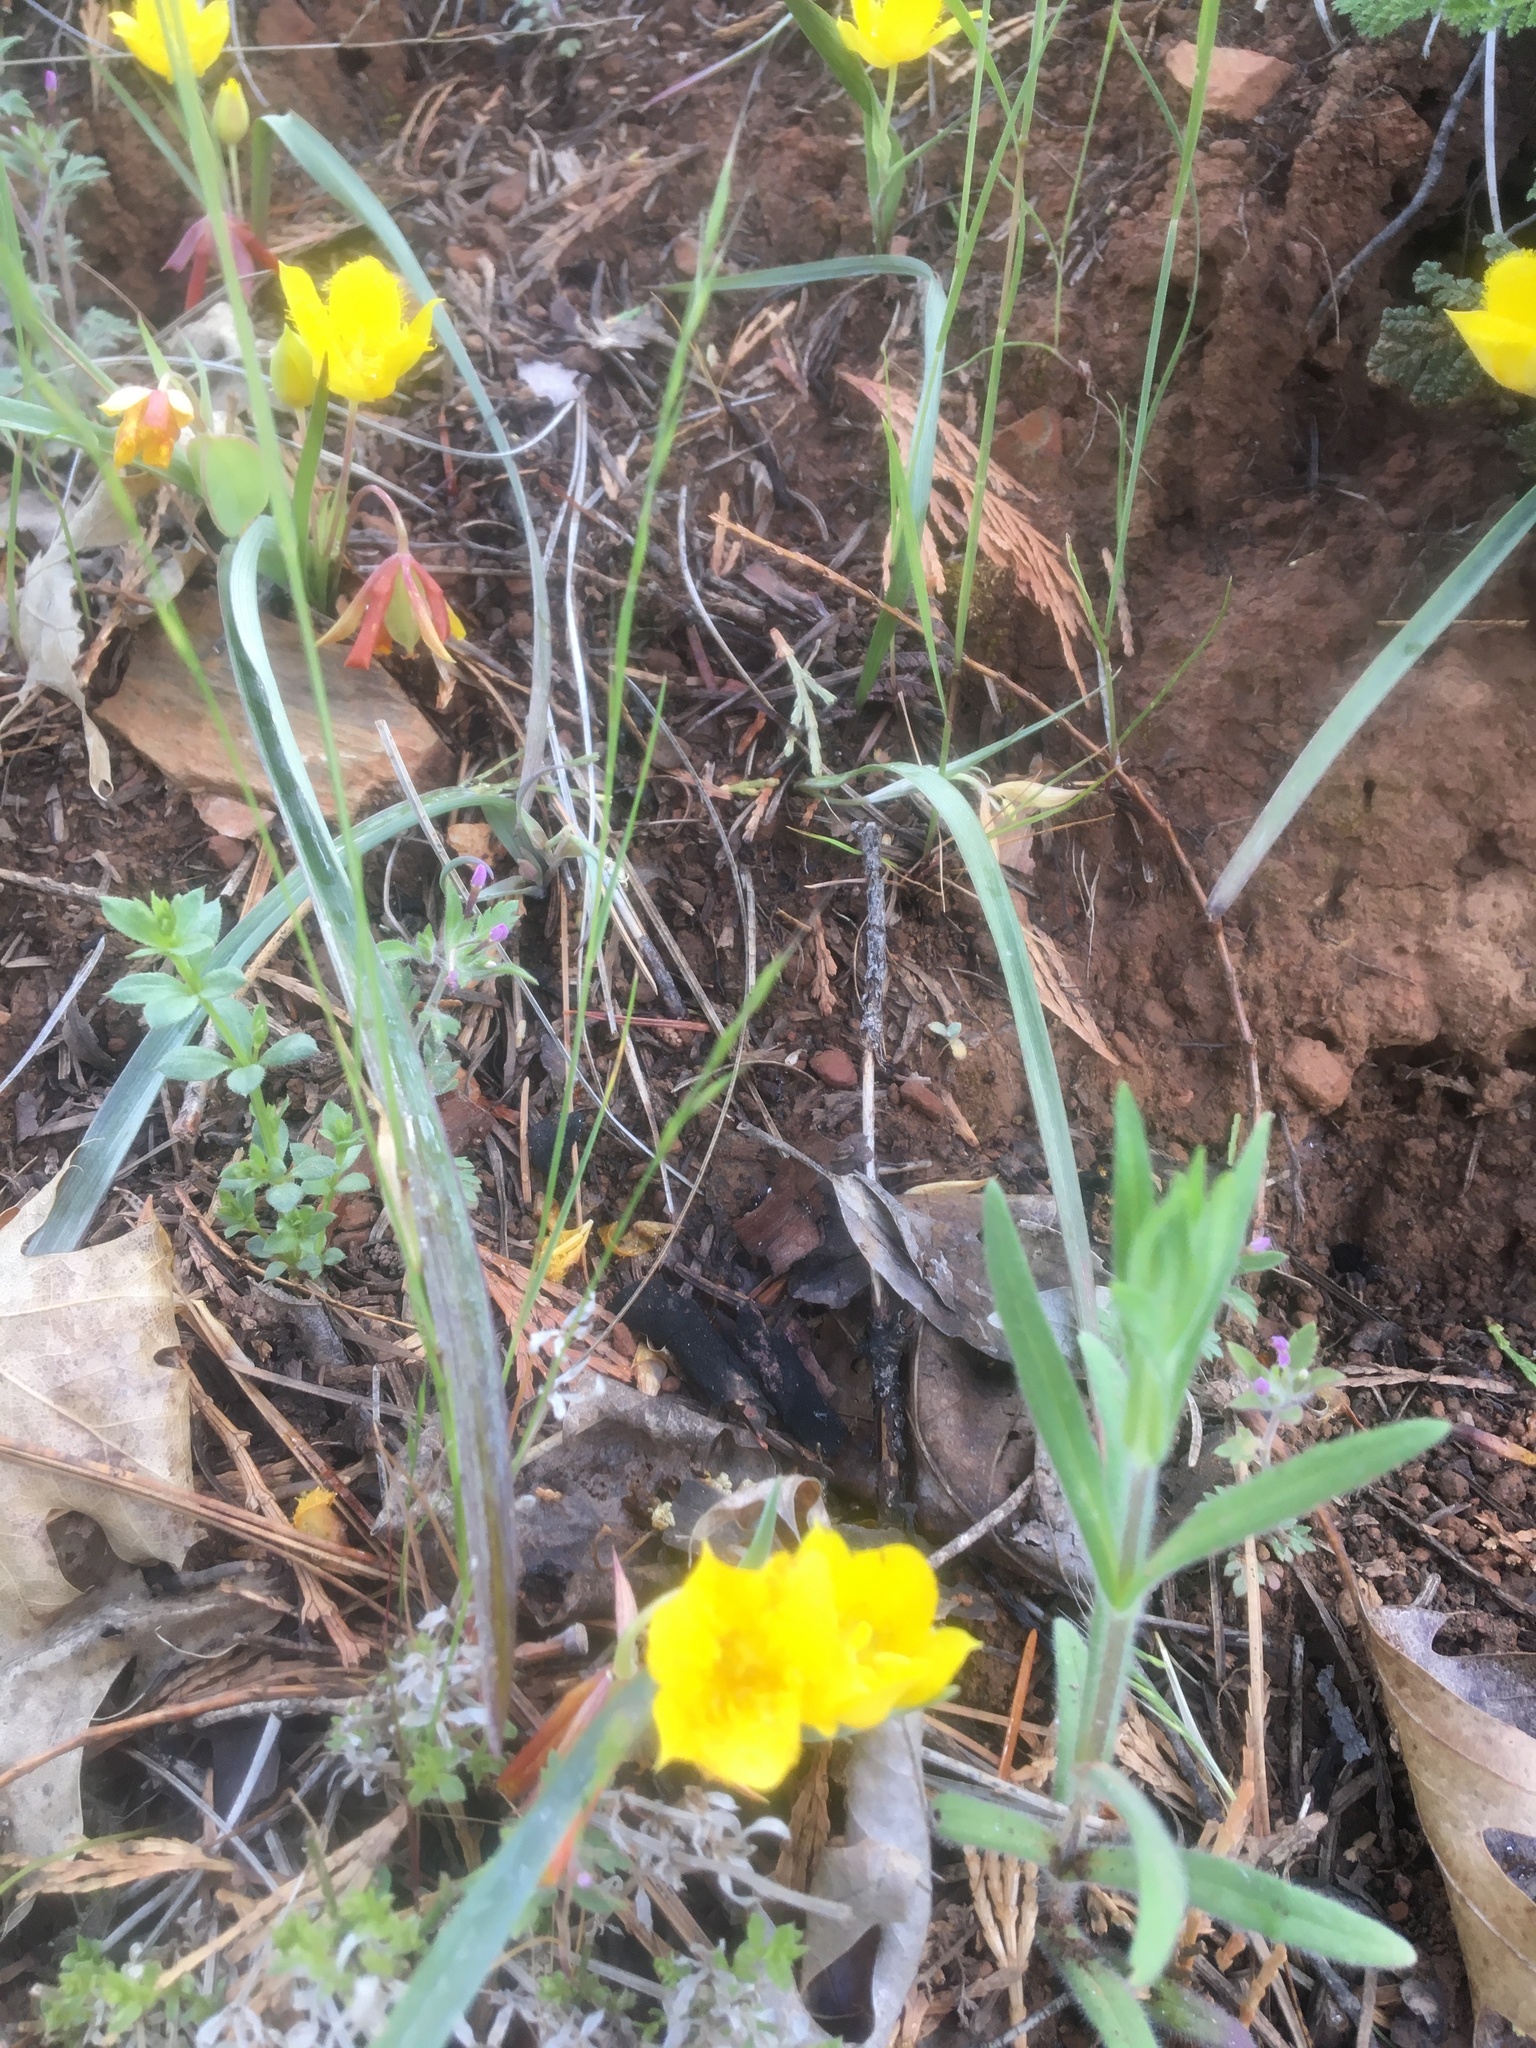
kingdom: Plantae
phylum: Tracheophyta
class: Liliopsida
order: Liliales
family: Liliaceae
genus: Calochortus
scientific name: Calochortus monophyllus
